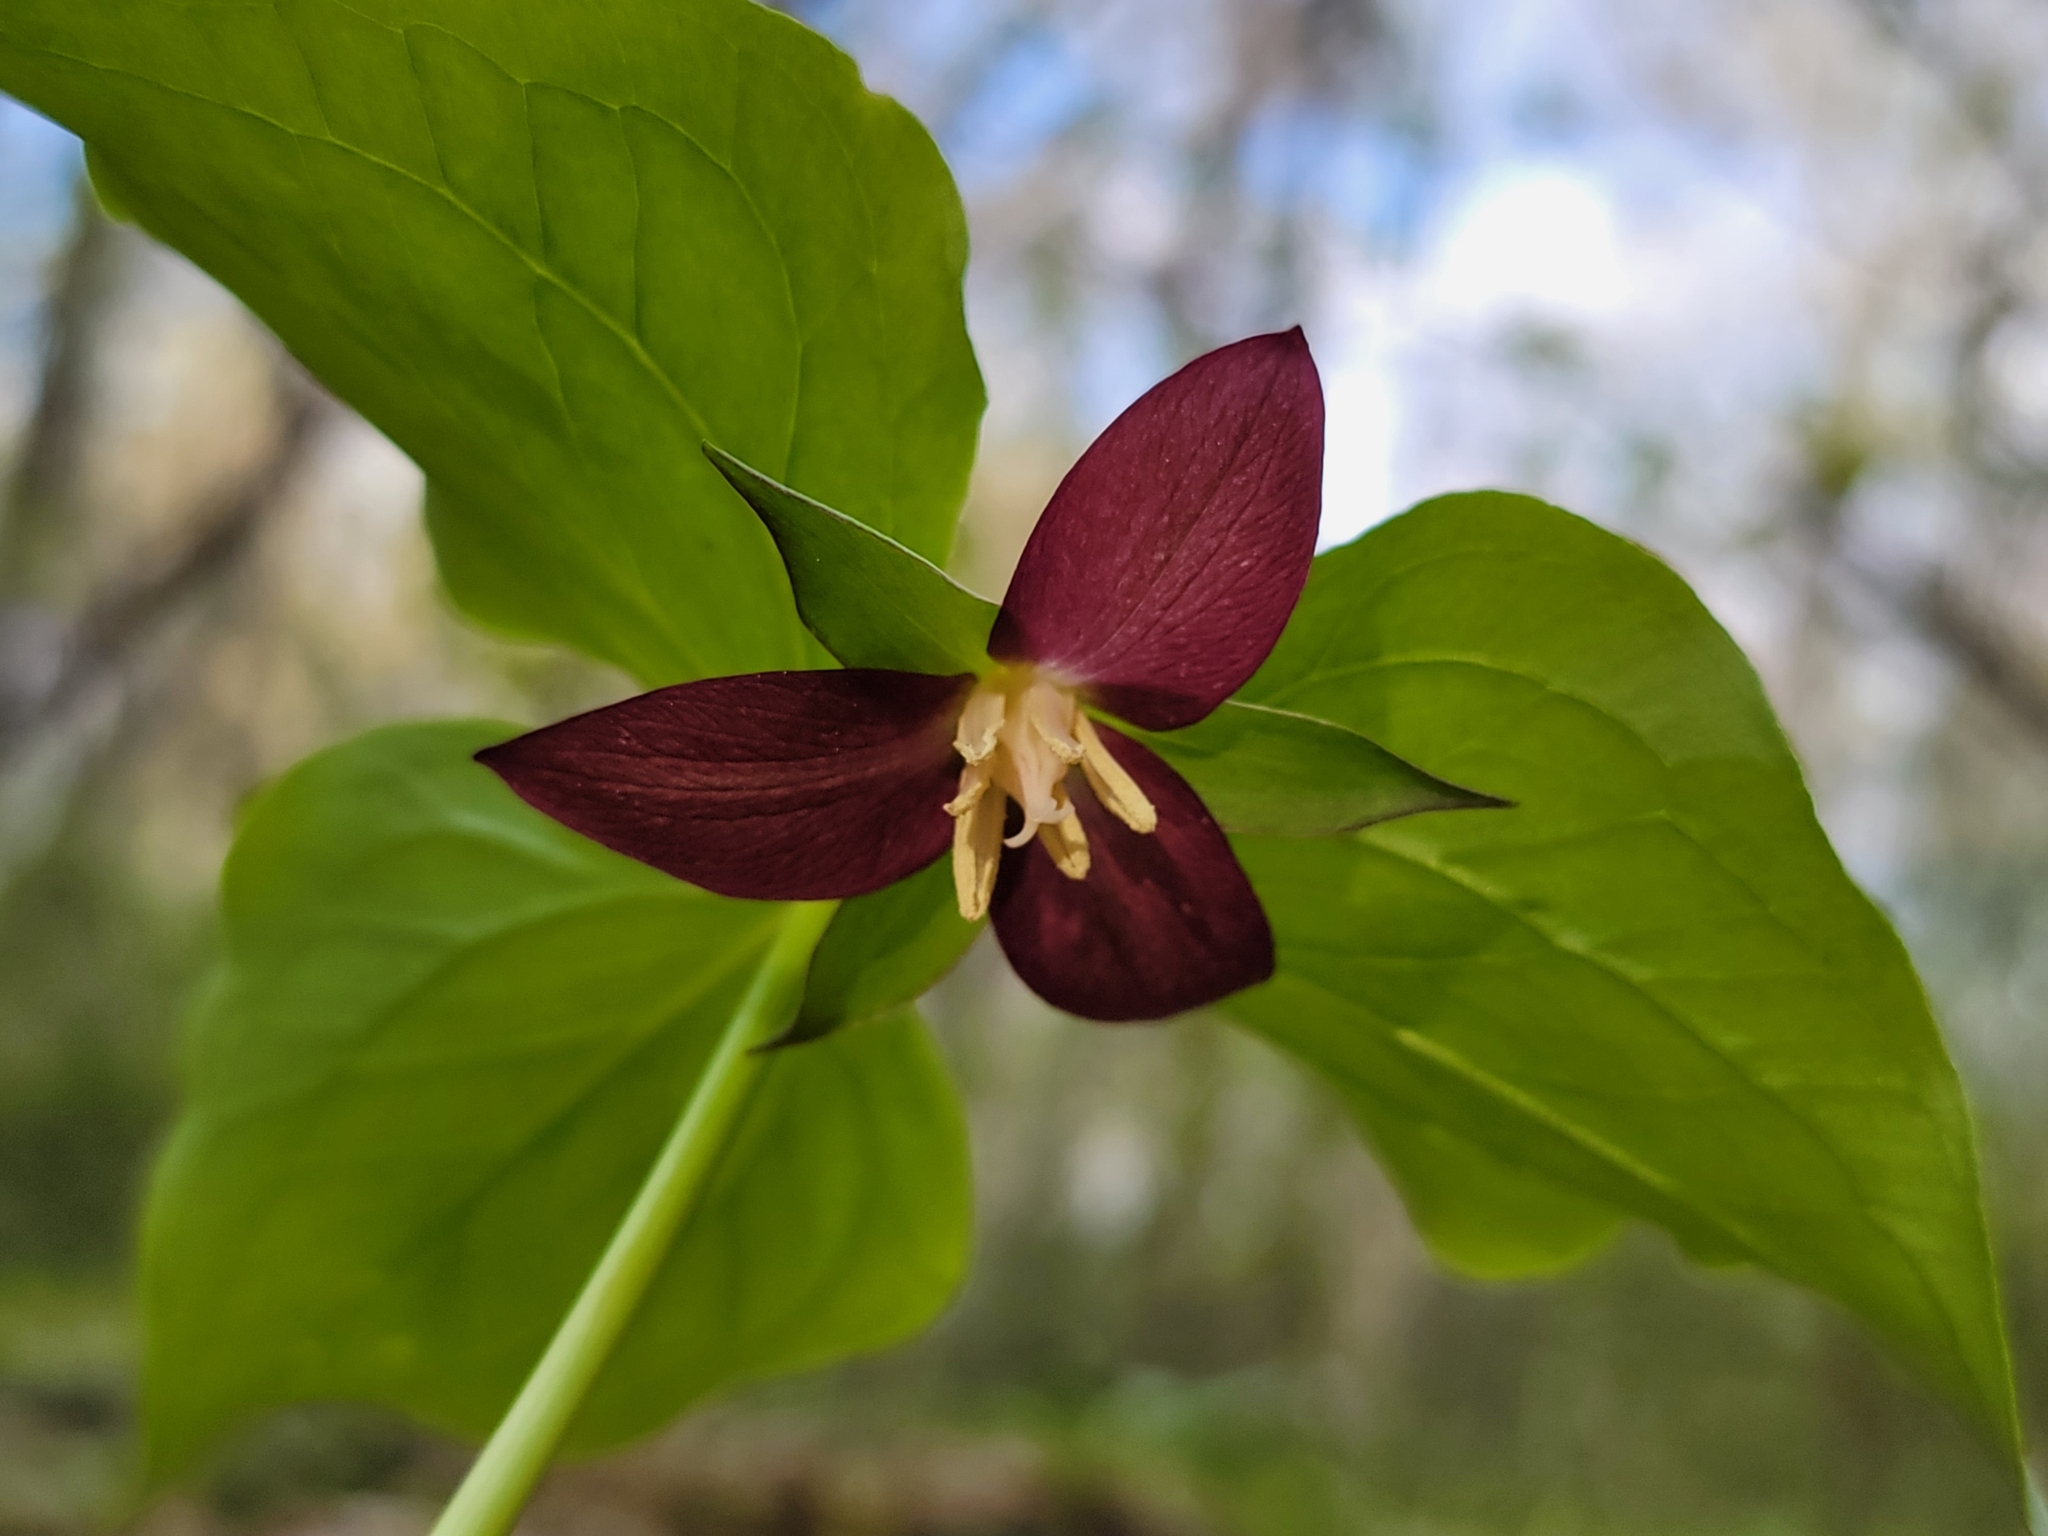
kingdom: Plantae
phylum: Tracheophyta
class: Liliopsida
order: Liliales
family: Melanthiaceae
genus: Trillium
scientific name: Trillium flexipes
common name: Drooping trillium
